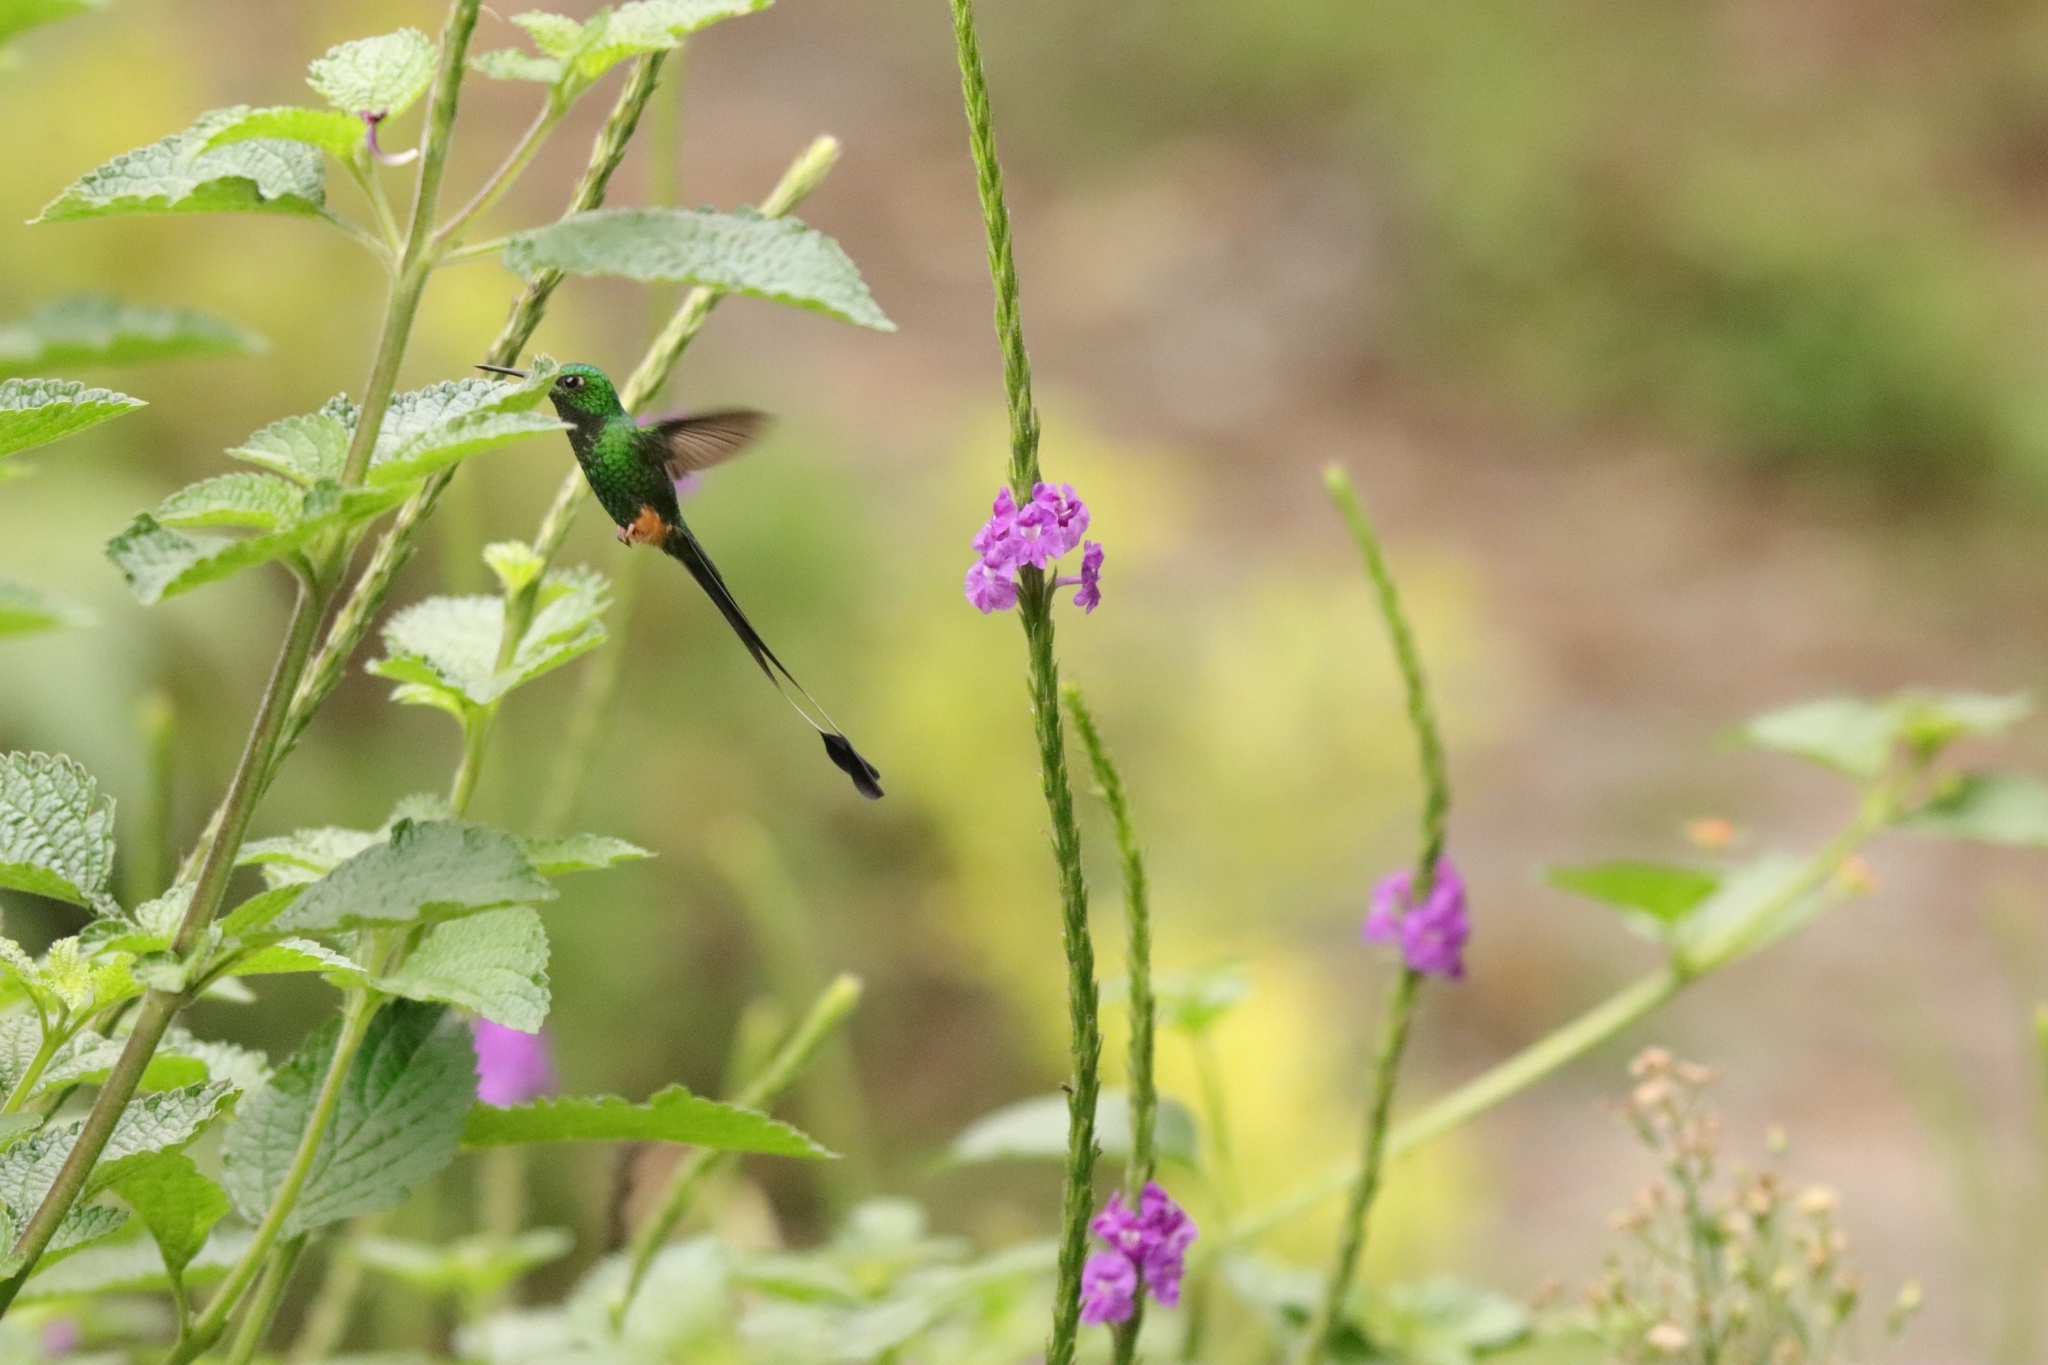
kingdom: Animalia
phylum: Chordata
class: Aves
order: Apodiformes
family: Trochilidae
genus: Ocreatus
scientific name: Ocreatus peruanus
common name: Peruvian racket-tail
